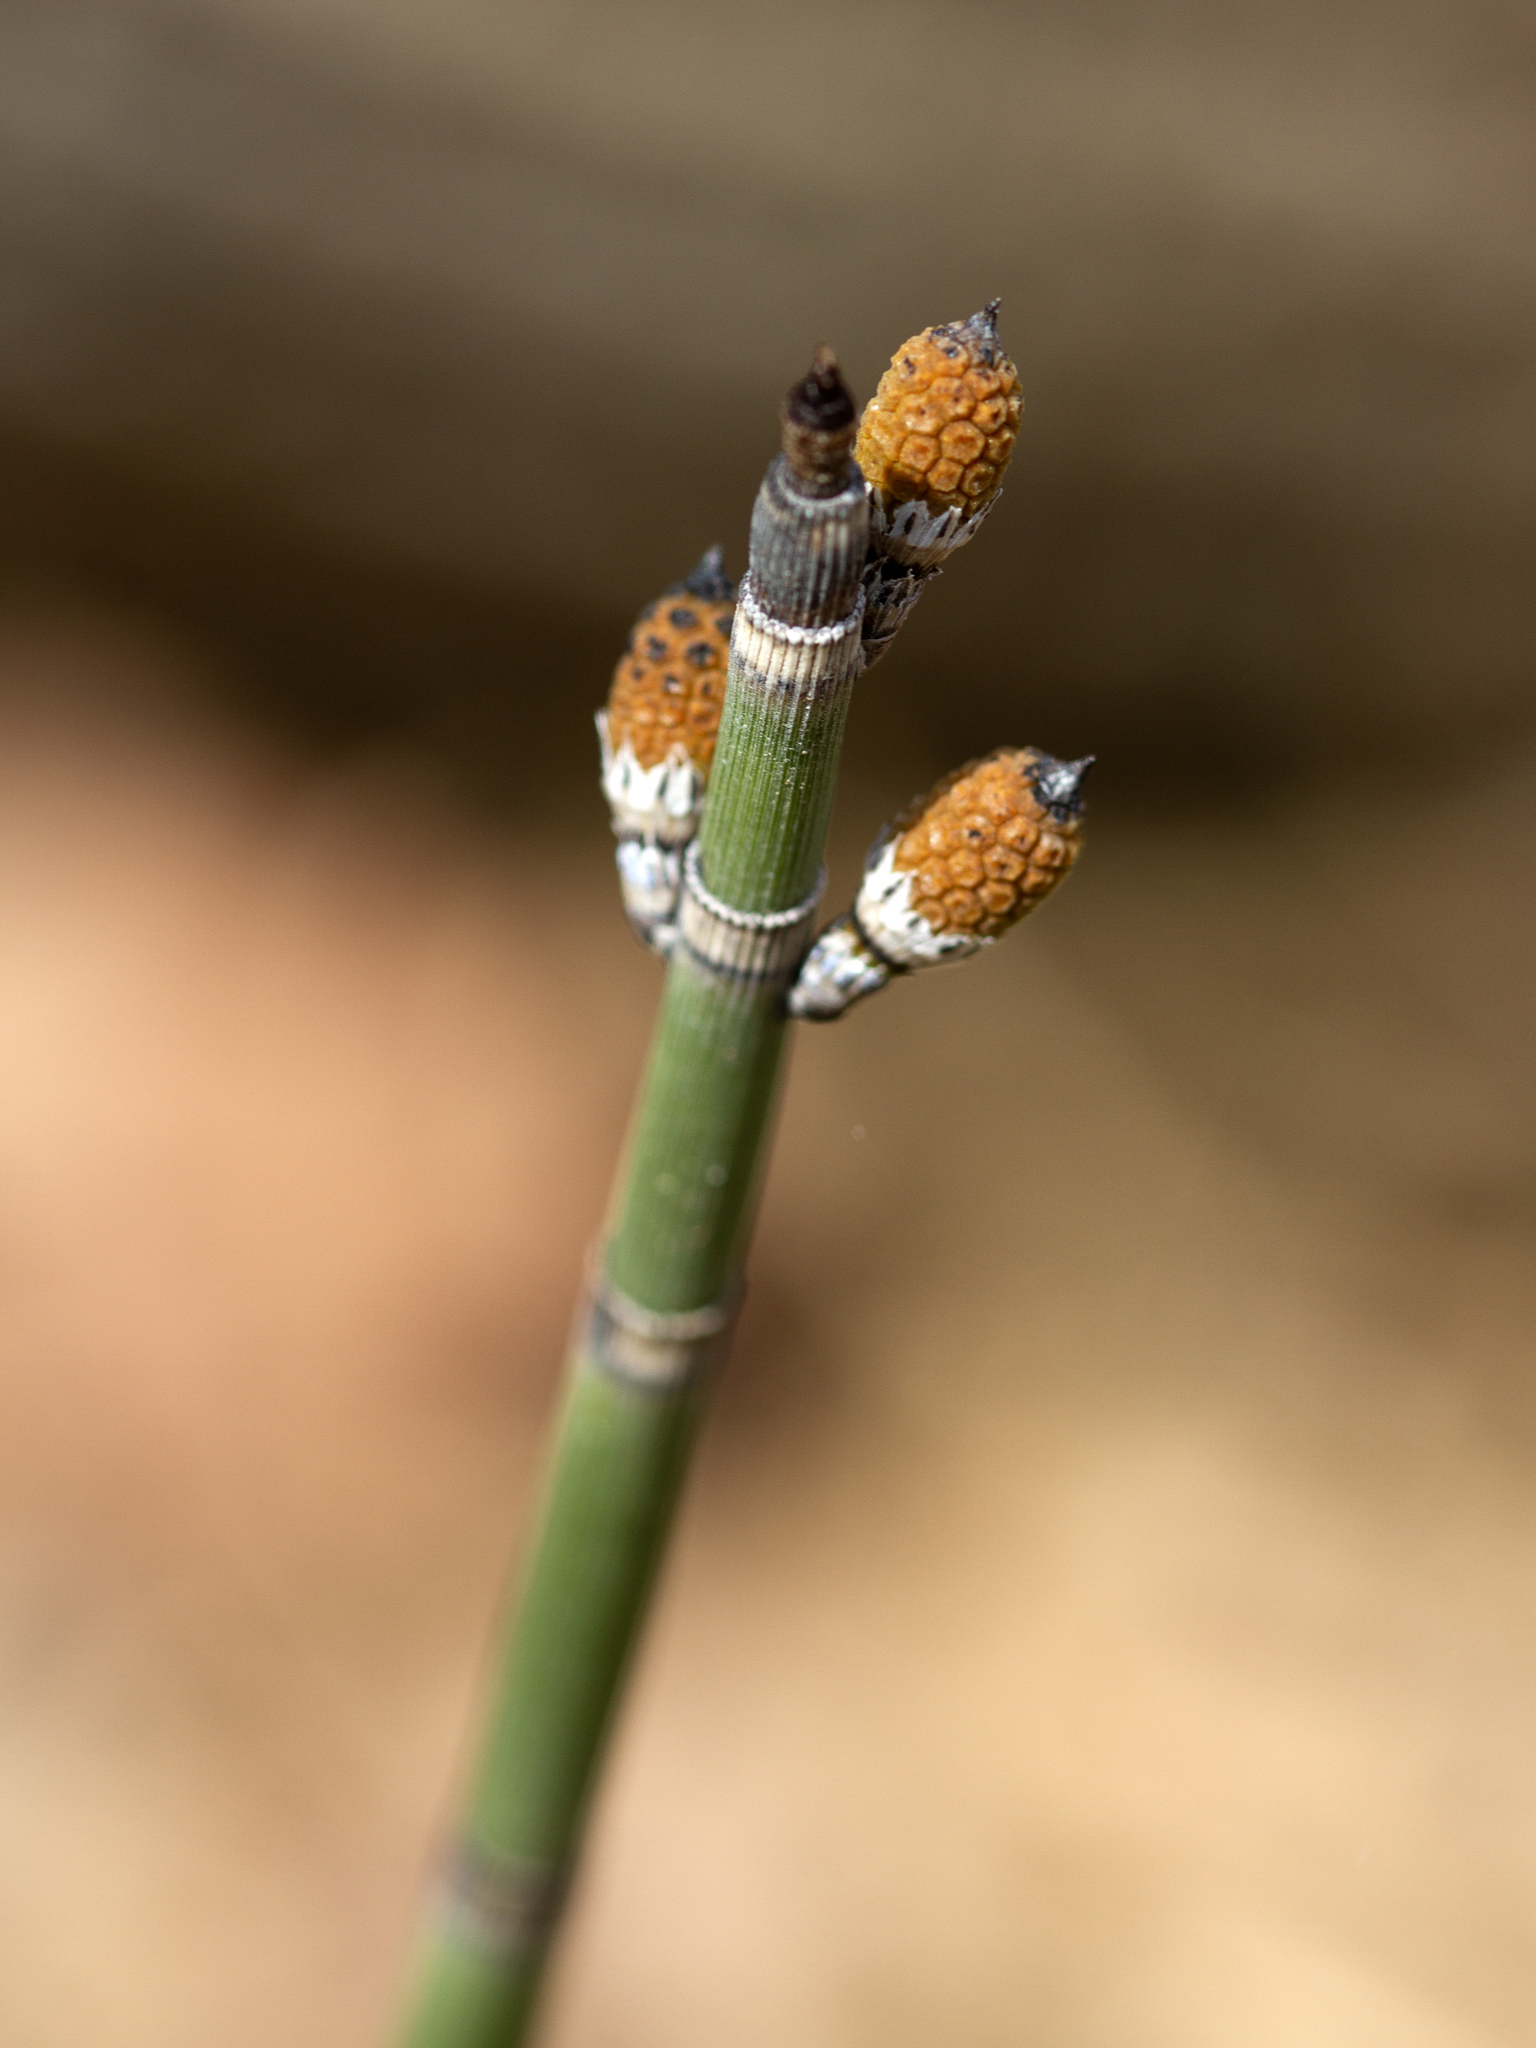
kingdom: Plantae
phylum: Tracheophyta
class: Polypodiopsida
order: Equisetales
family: Equisetaceae
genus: Equisetum
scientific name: Equisetum praealtum
